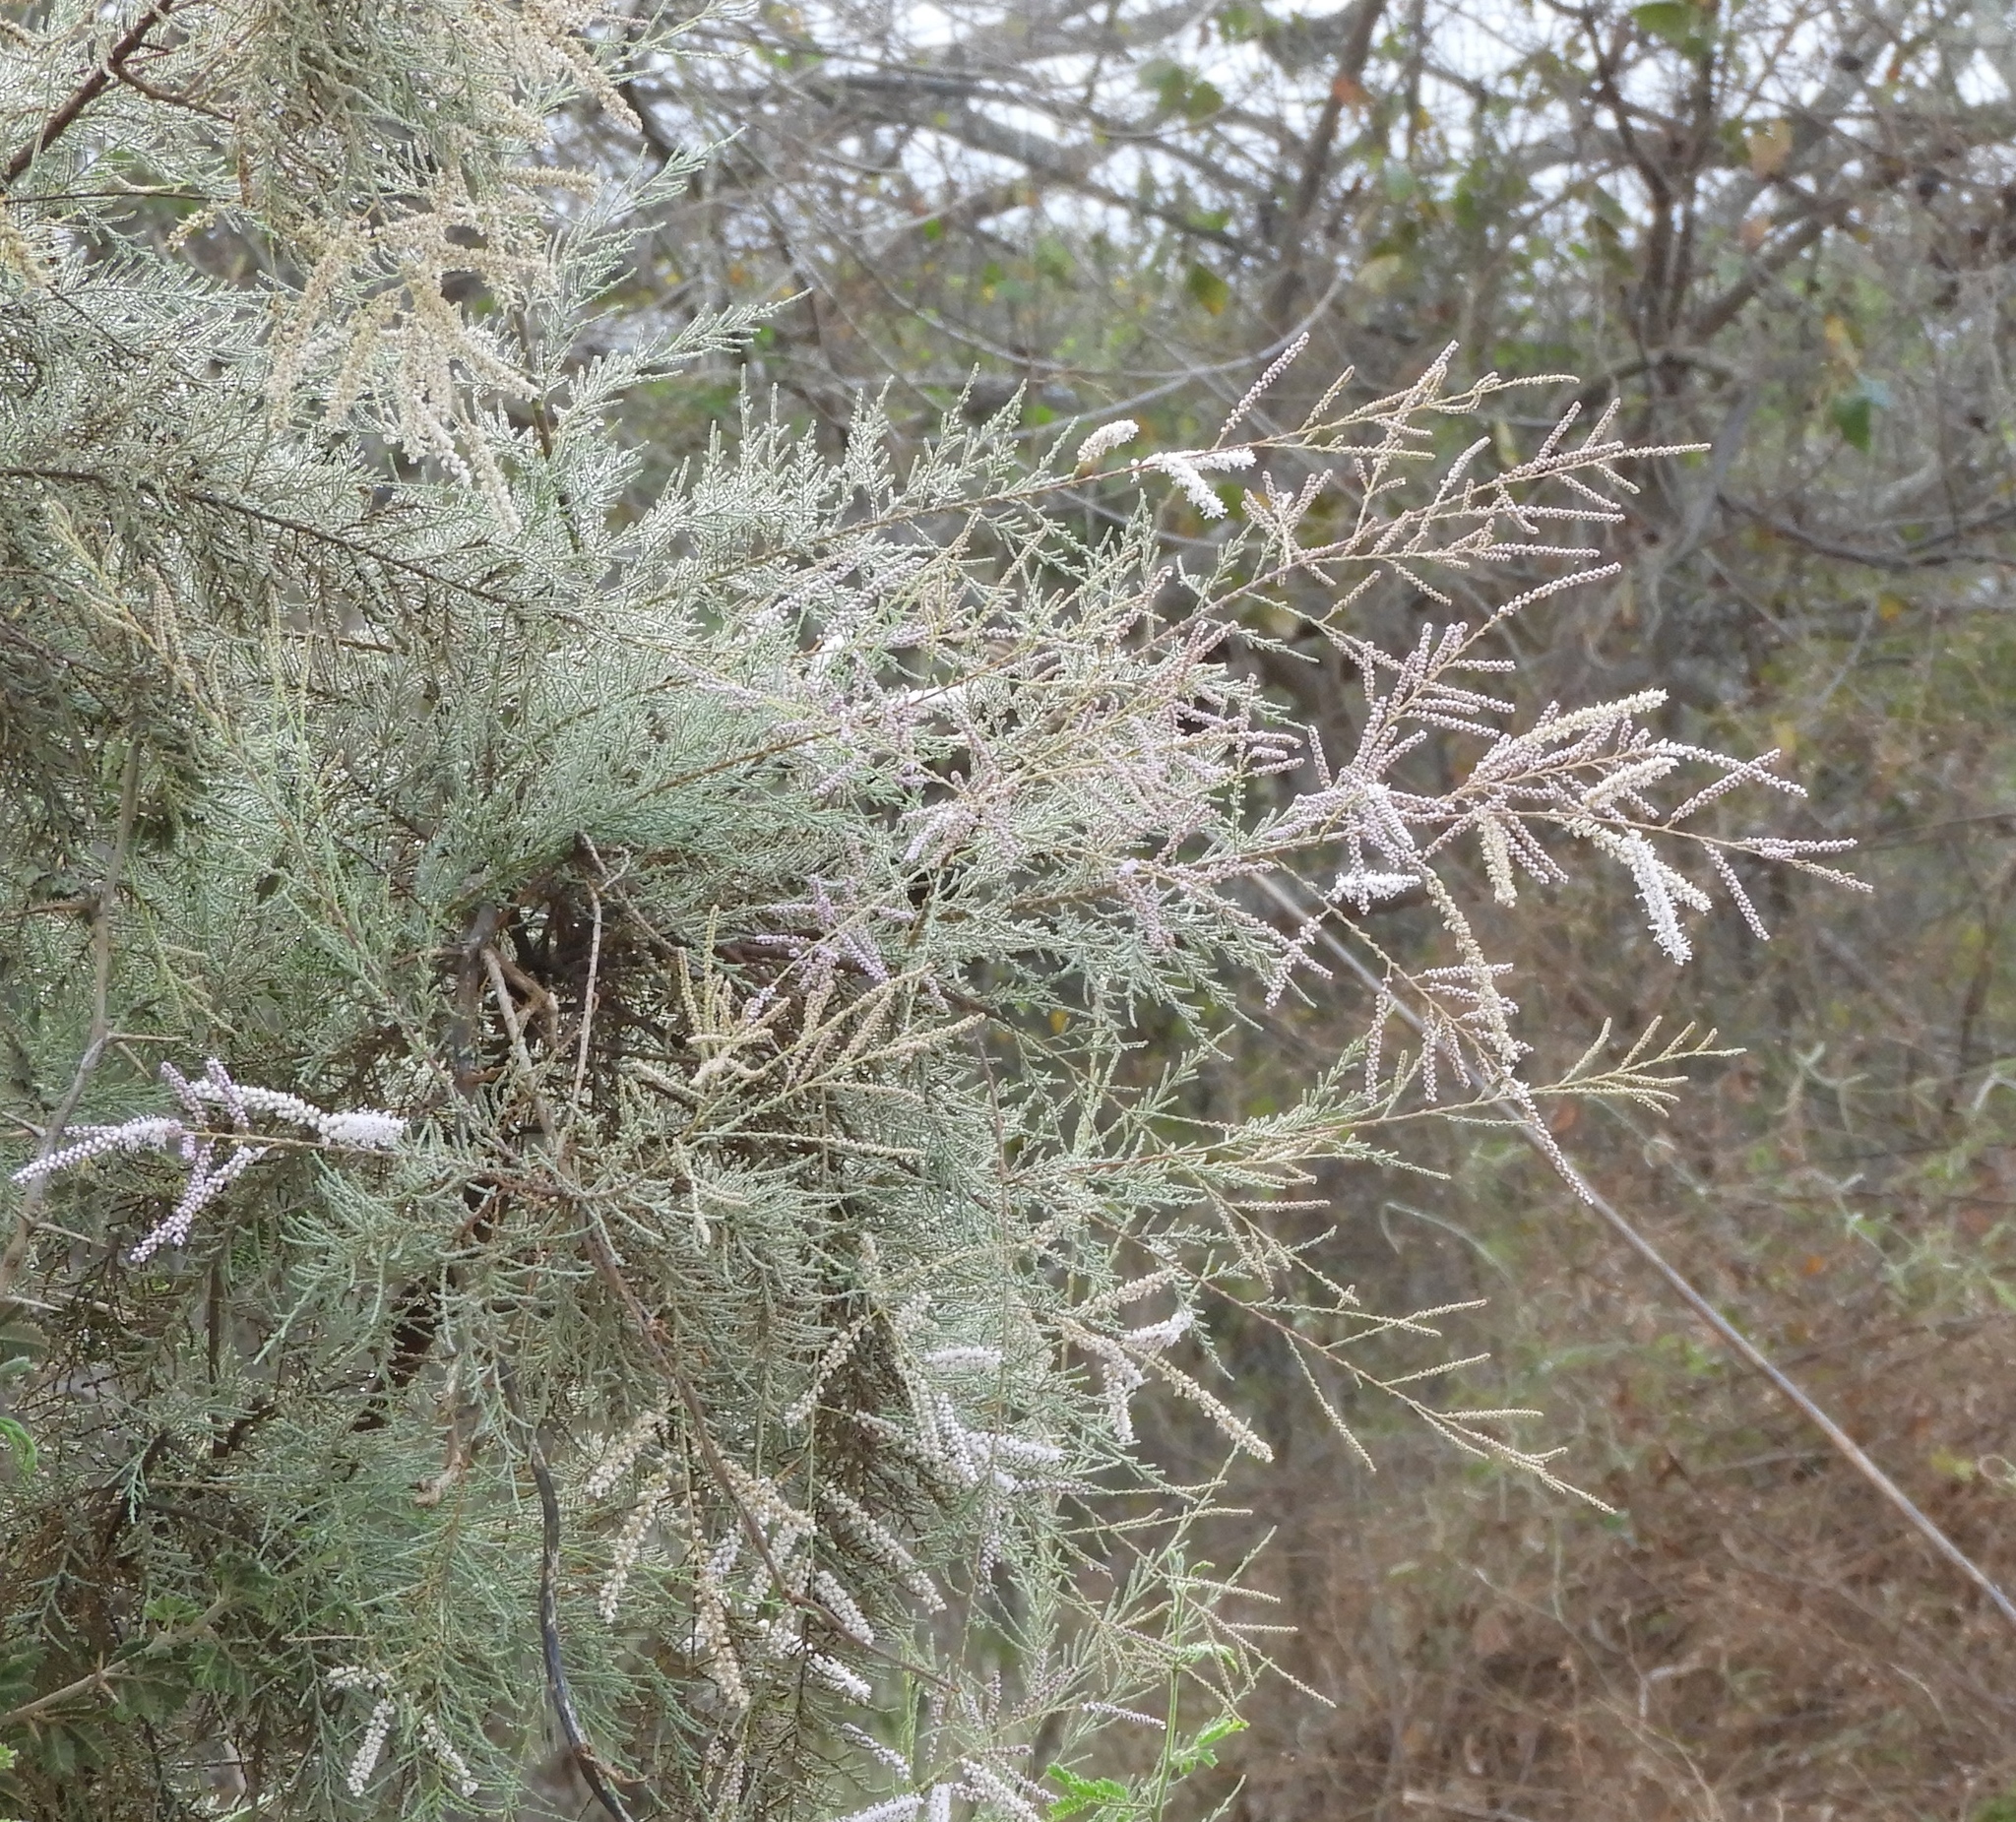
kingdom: Plantae
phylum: Tracheophyta
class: Magnoliopsida
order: Caryophyllales
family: Tamaricaceae
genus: Tamarix
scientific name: Tamarix ramosissima
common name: Pink tamarisk
